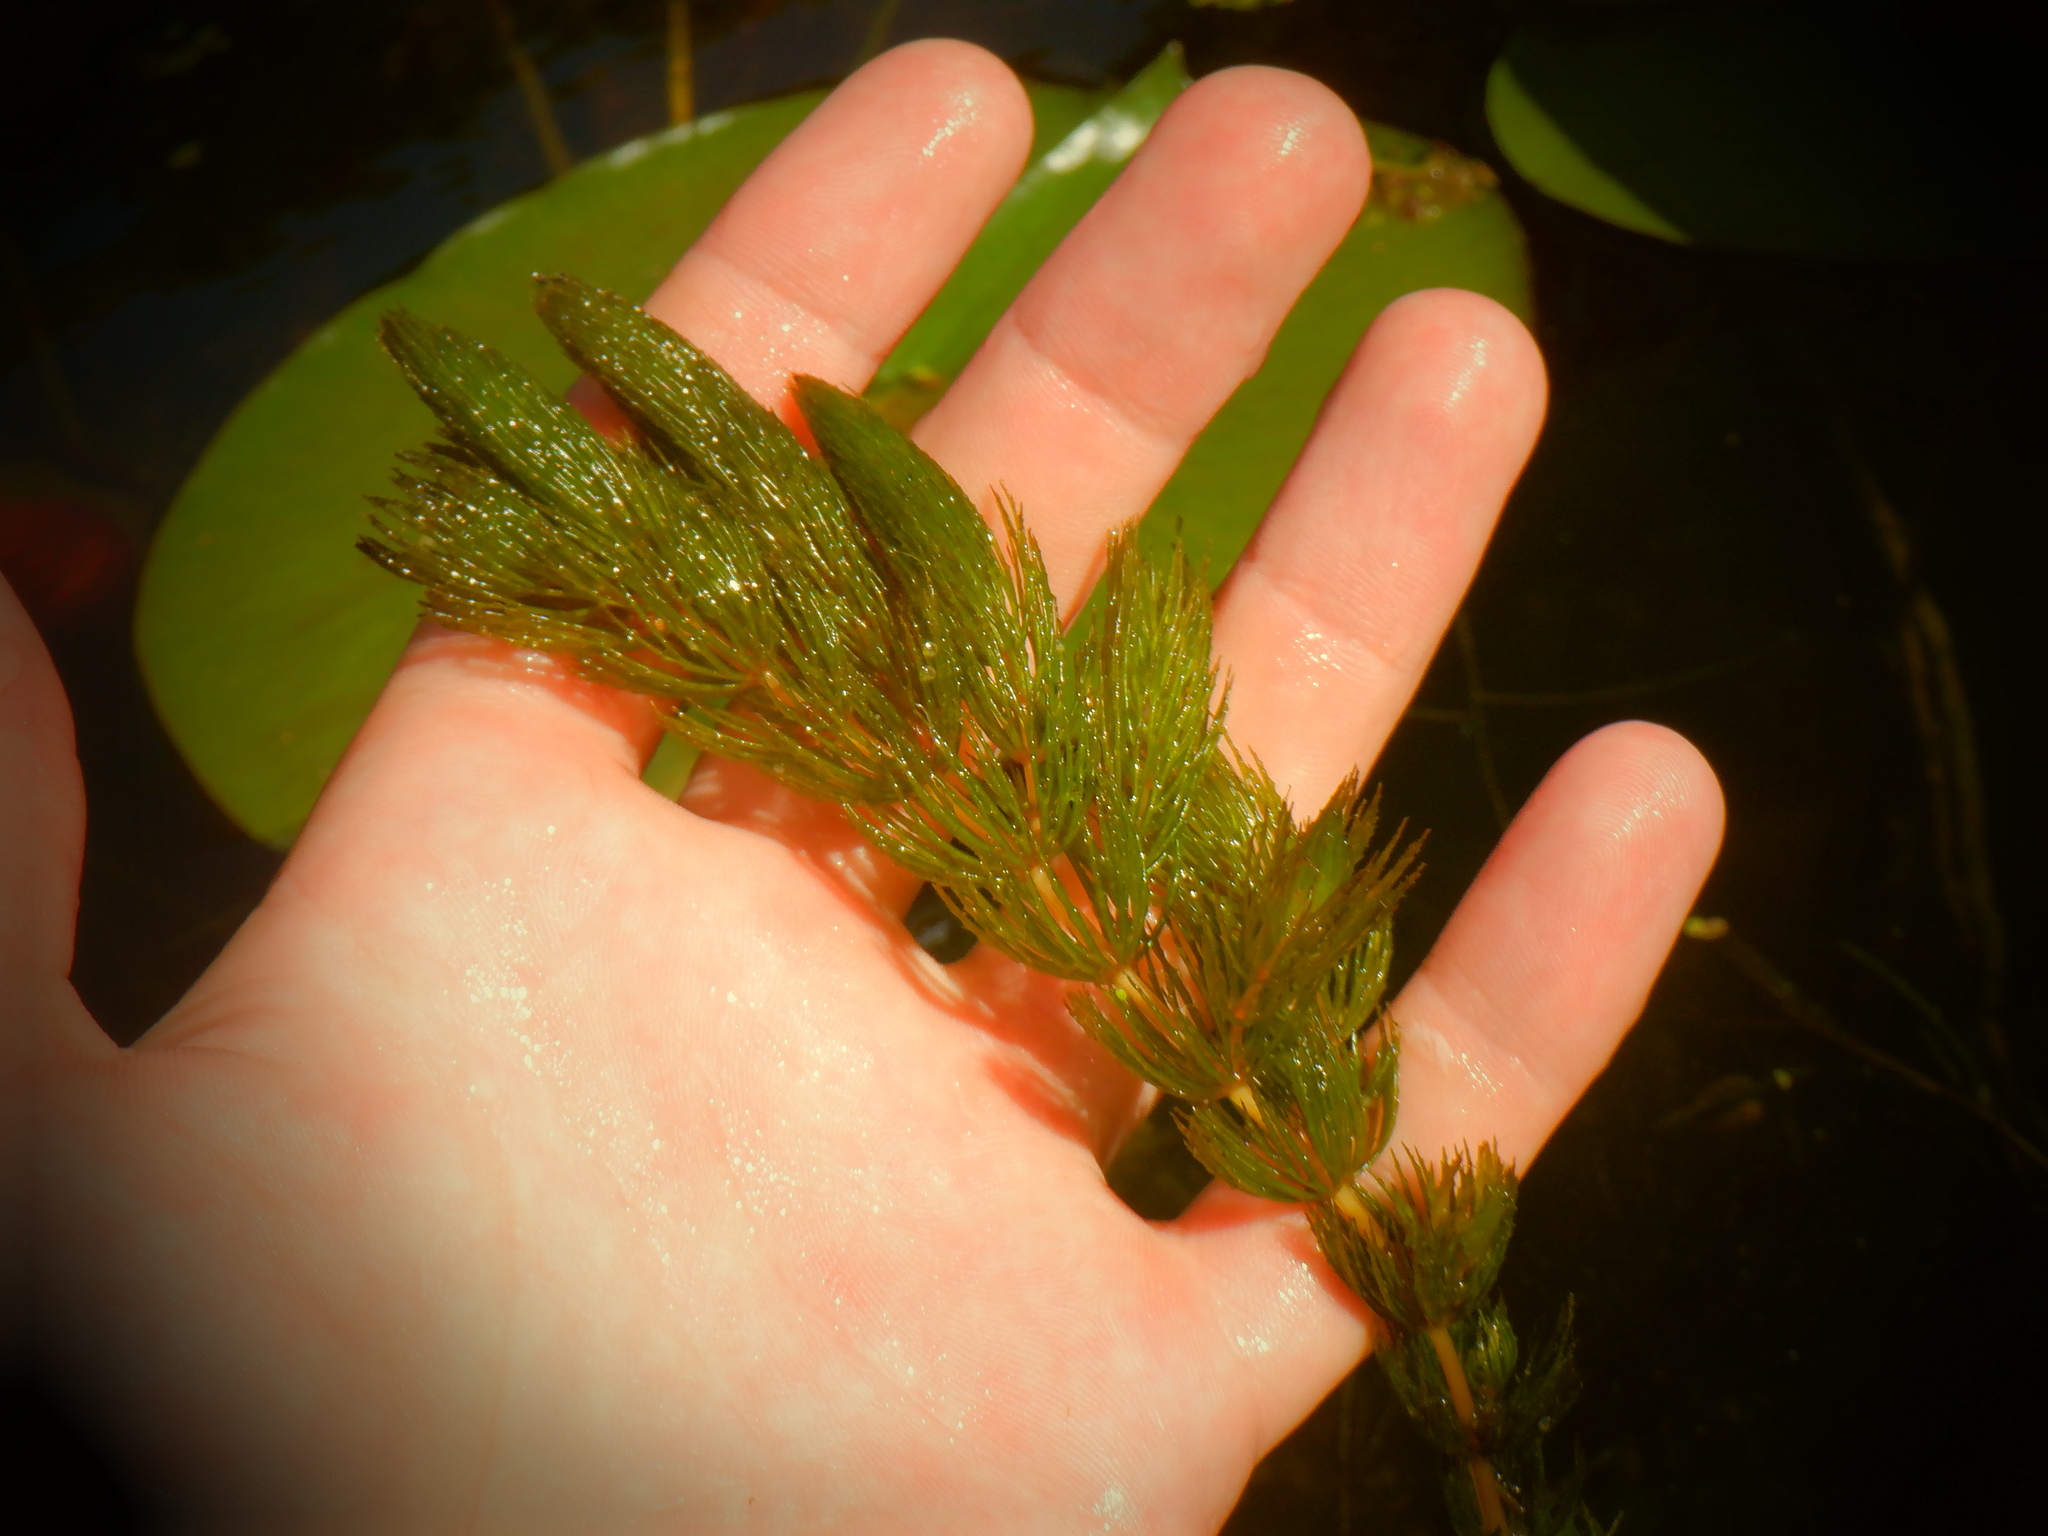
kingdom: Plantae
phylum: Tracheophyta
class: Magnoliopsida
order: Ceratophyllales
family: Ceratophyllaceae
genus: Ceratophyllum
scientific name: Ceratophyllum demersum
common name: Rigid hornwort
